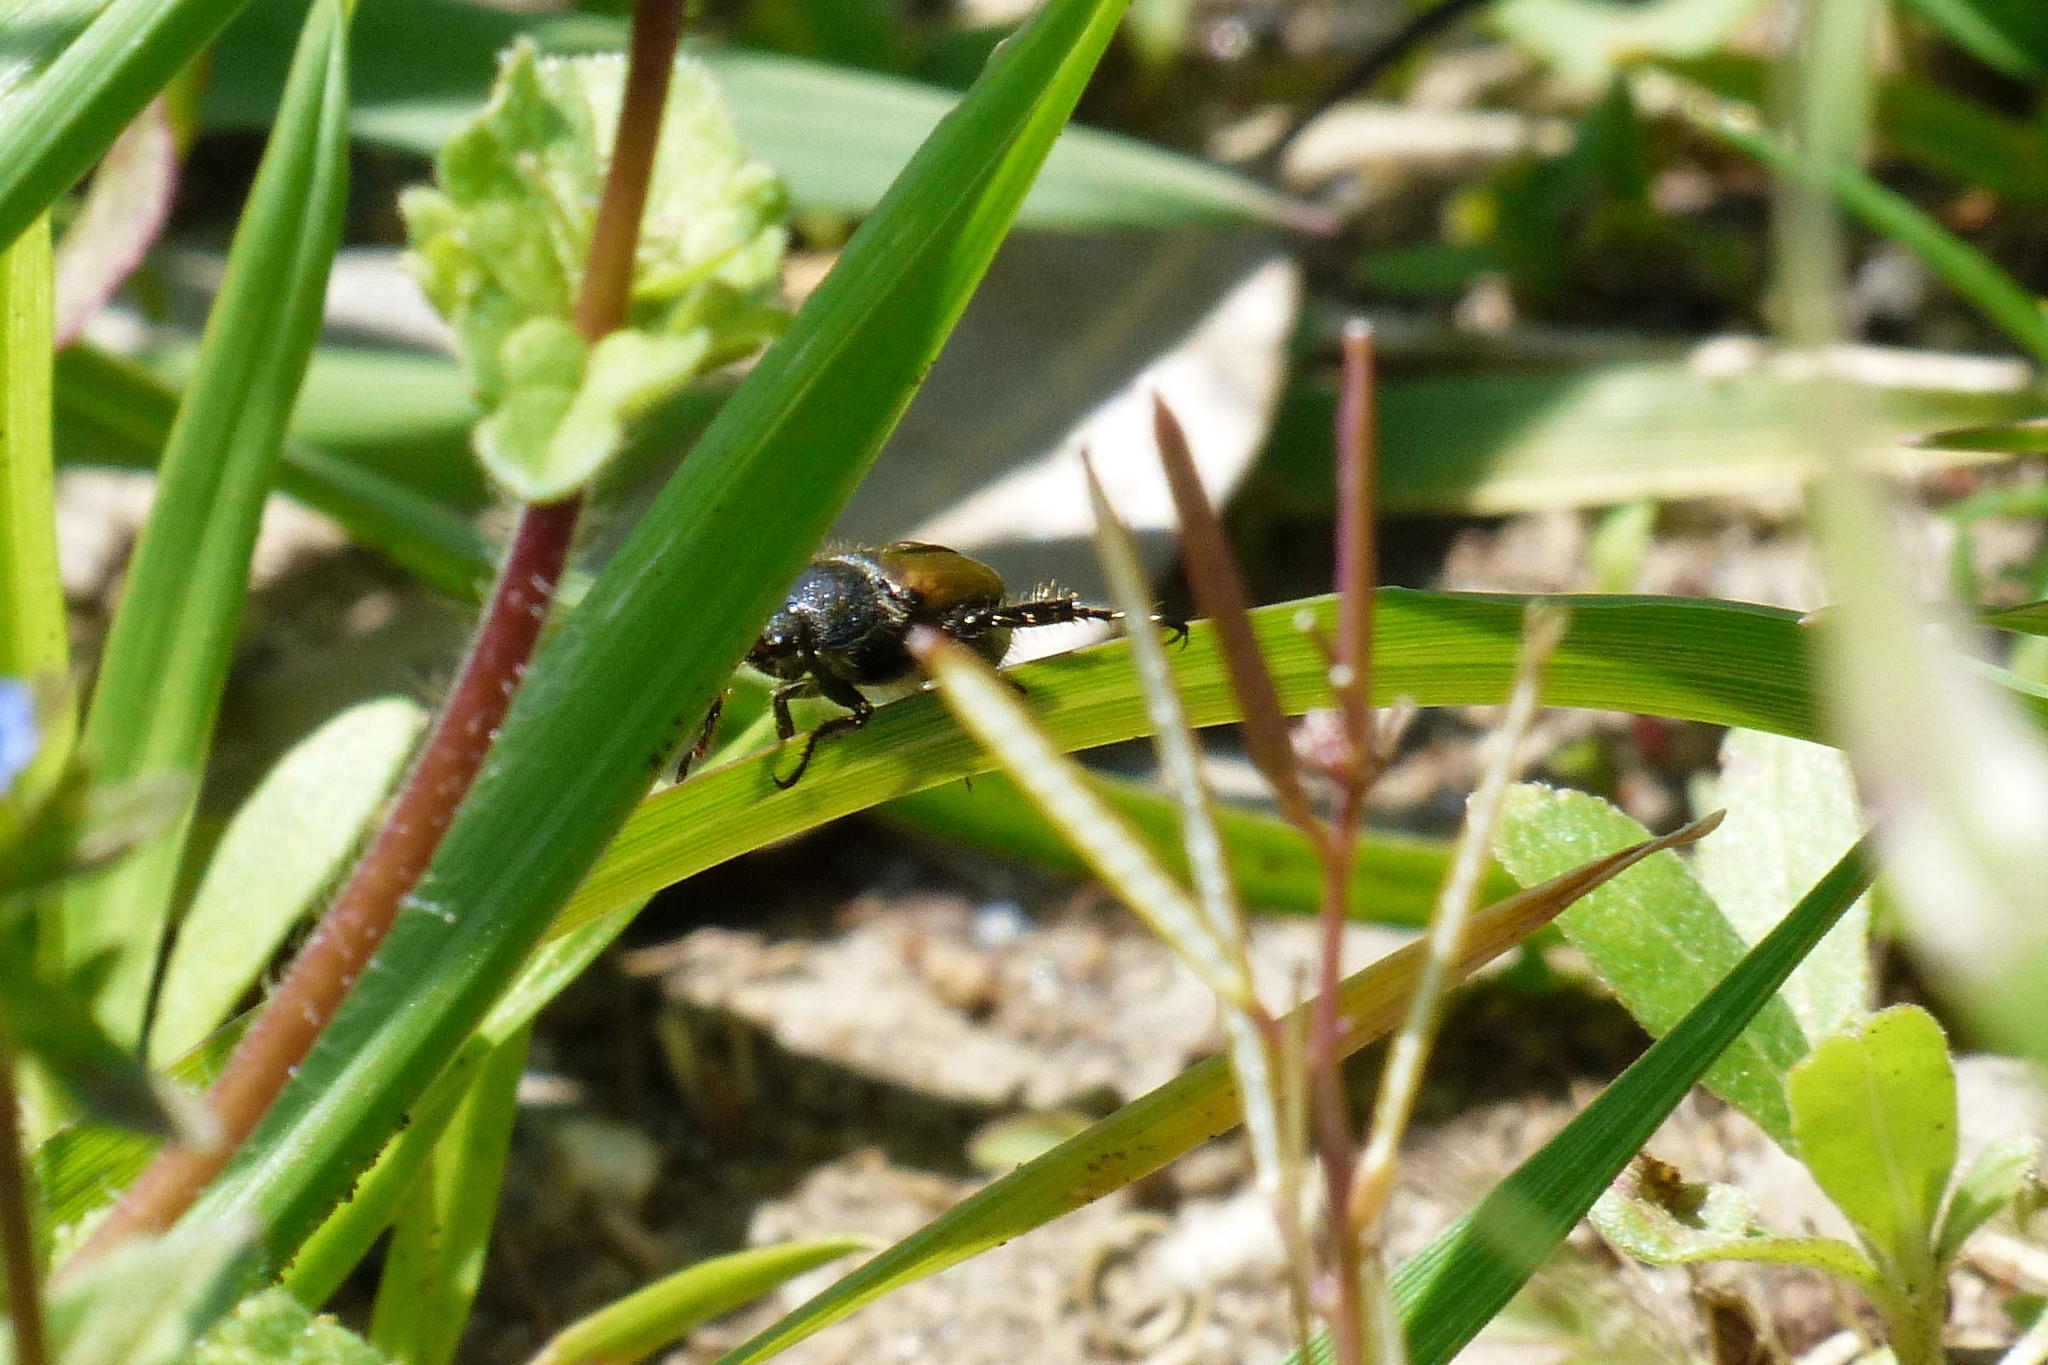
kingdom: Animalia
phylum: Arthropoda
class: Insecta
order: Coleoptera
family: Scarabaeidae
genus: Phyllopertha
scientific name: Phyllopertha diversa
